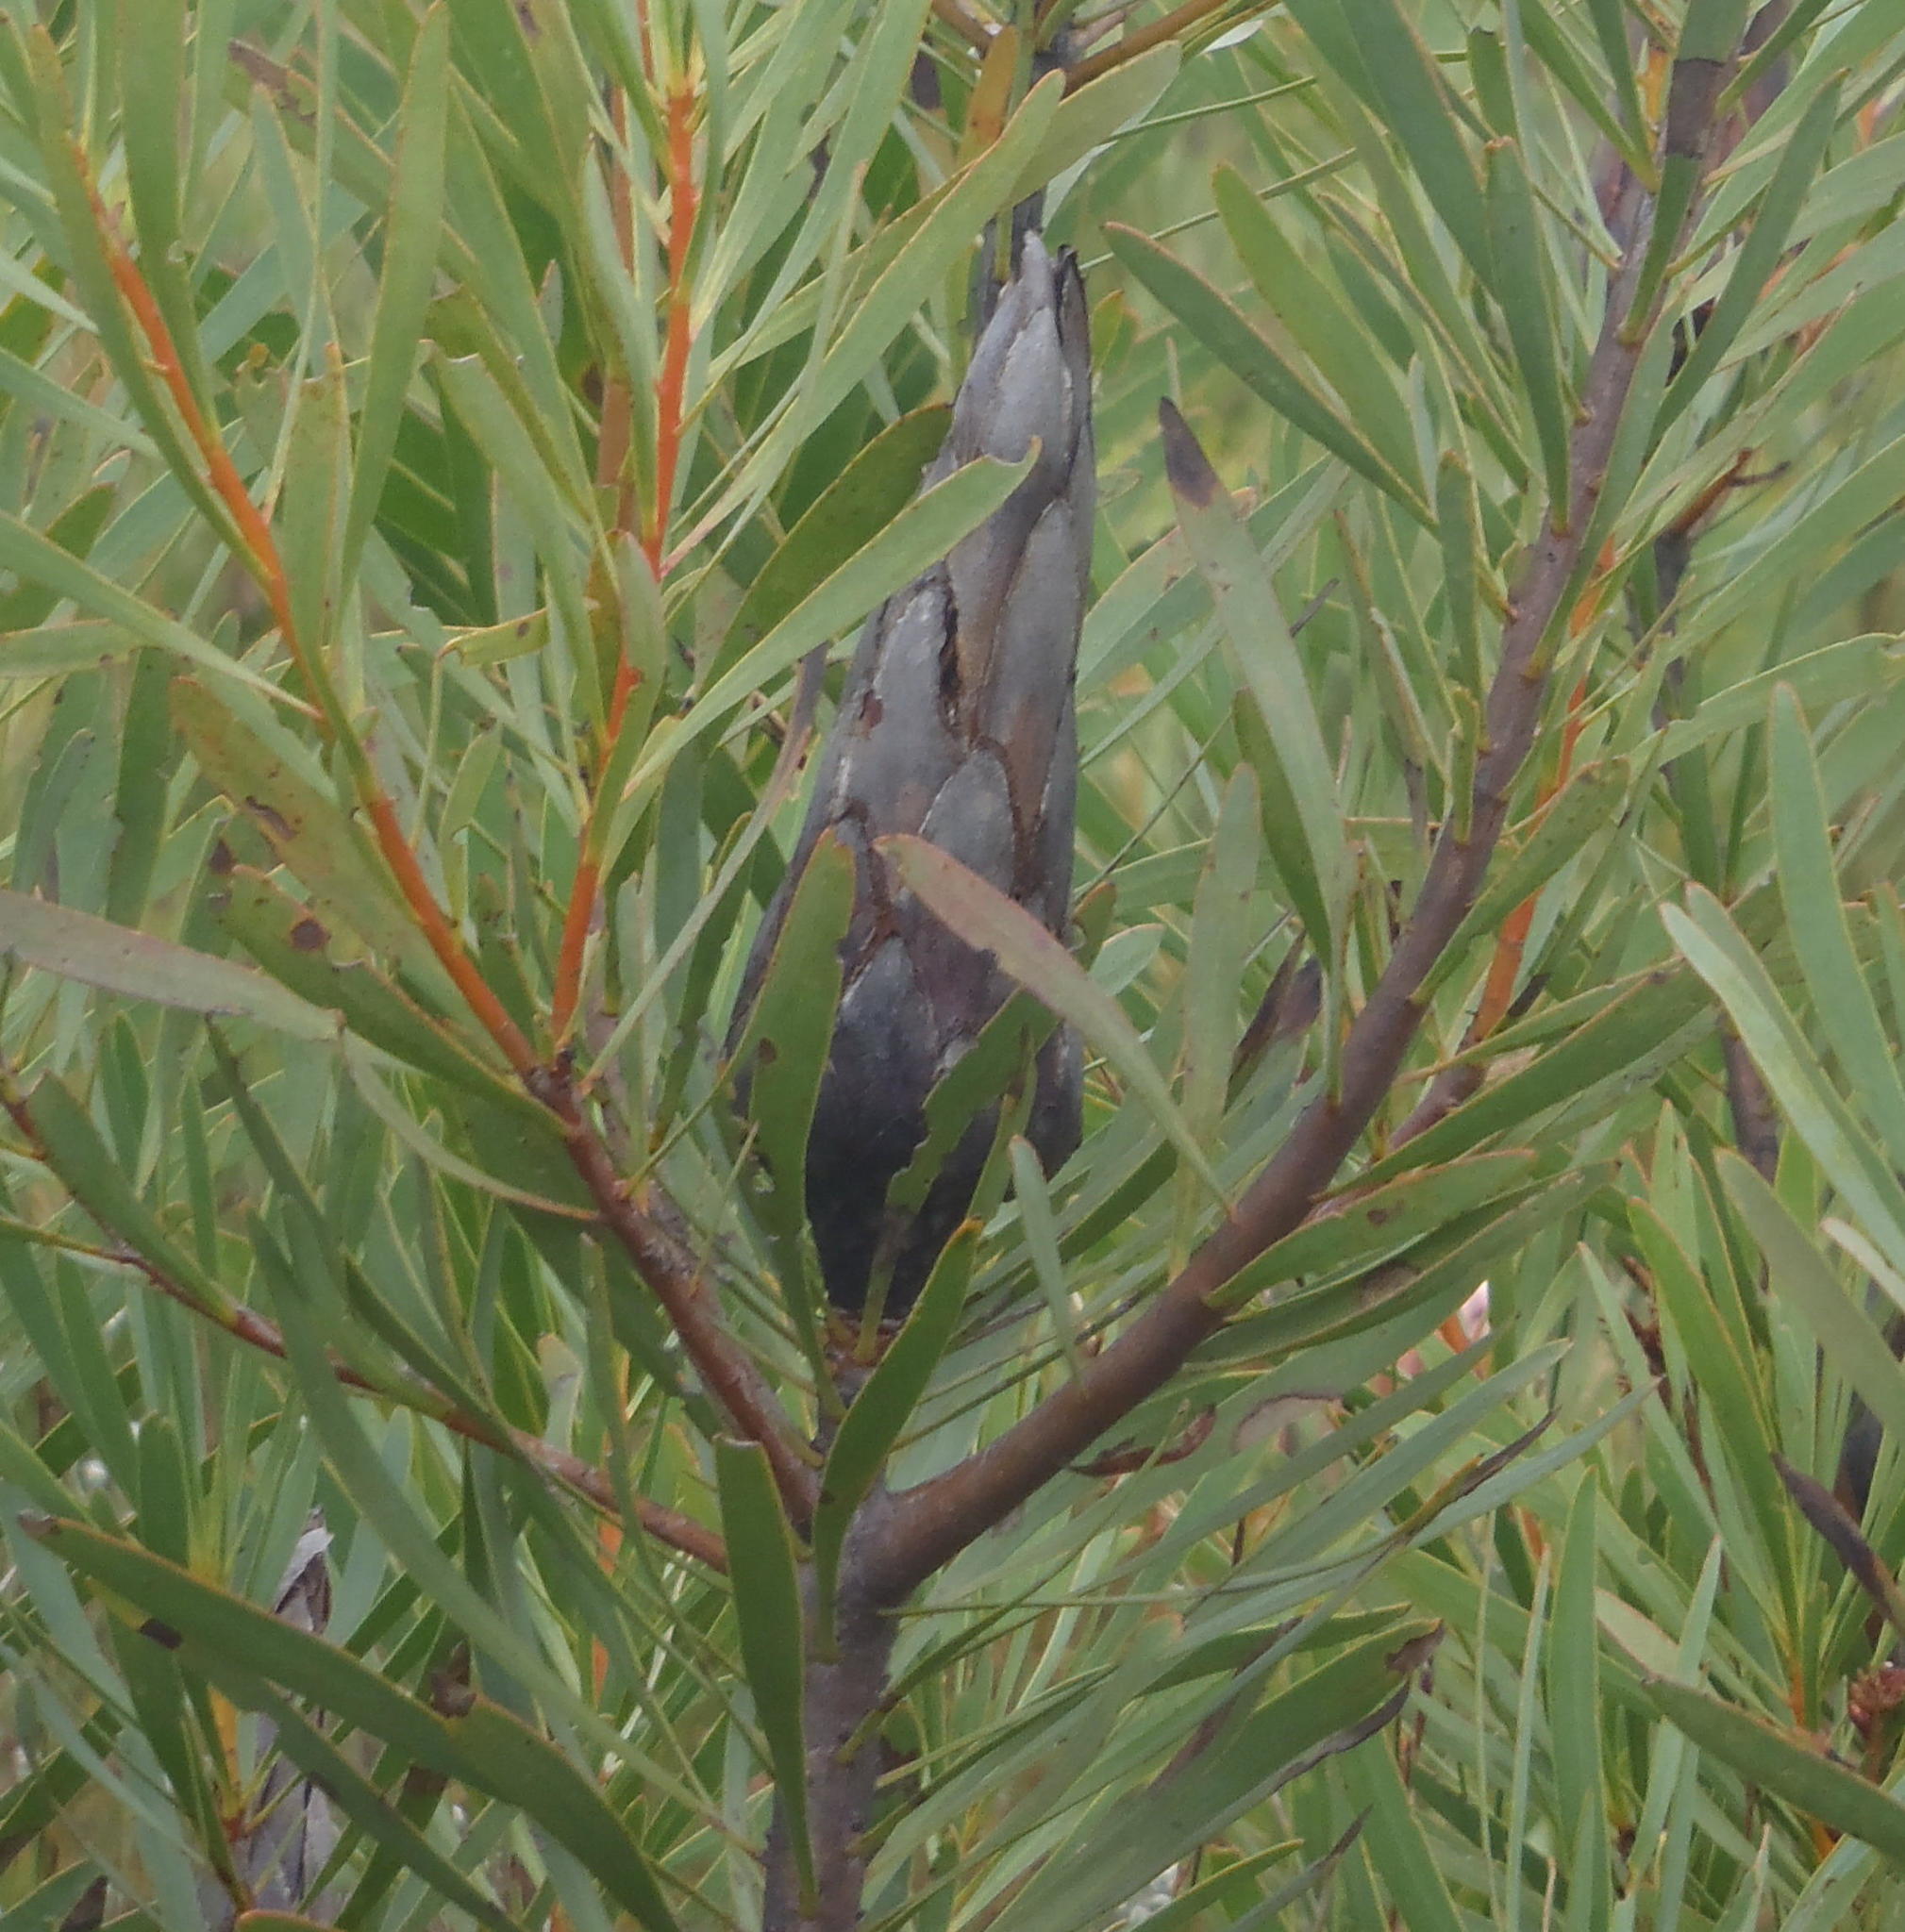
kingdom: Plantae
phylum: Tracheophyta
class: Magnoliopsida
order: Proteales
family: Proteaceae
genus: Protea
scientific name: Protea repens
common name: Sugarbush
